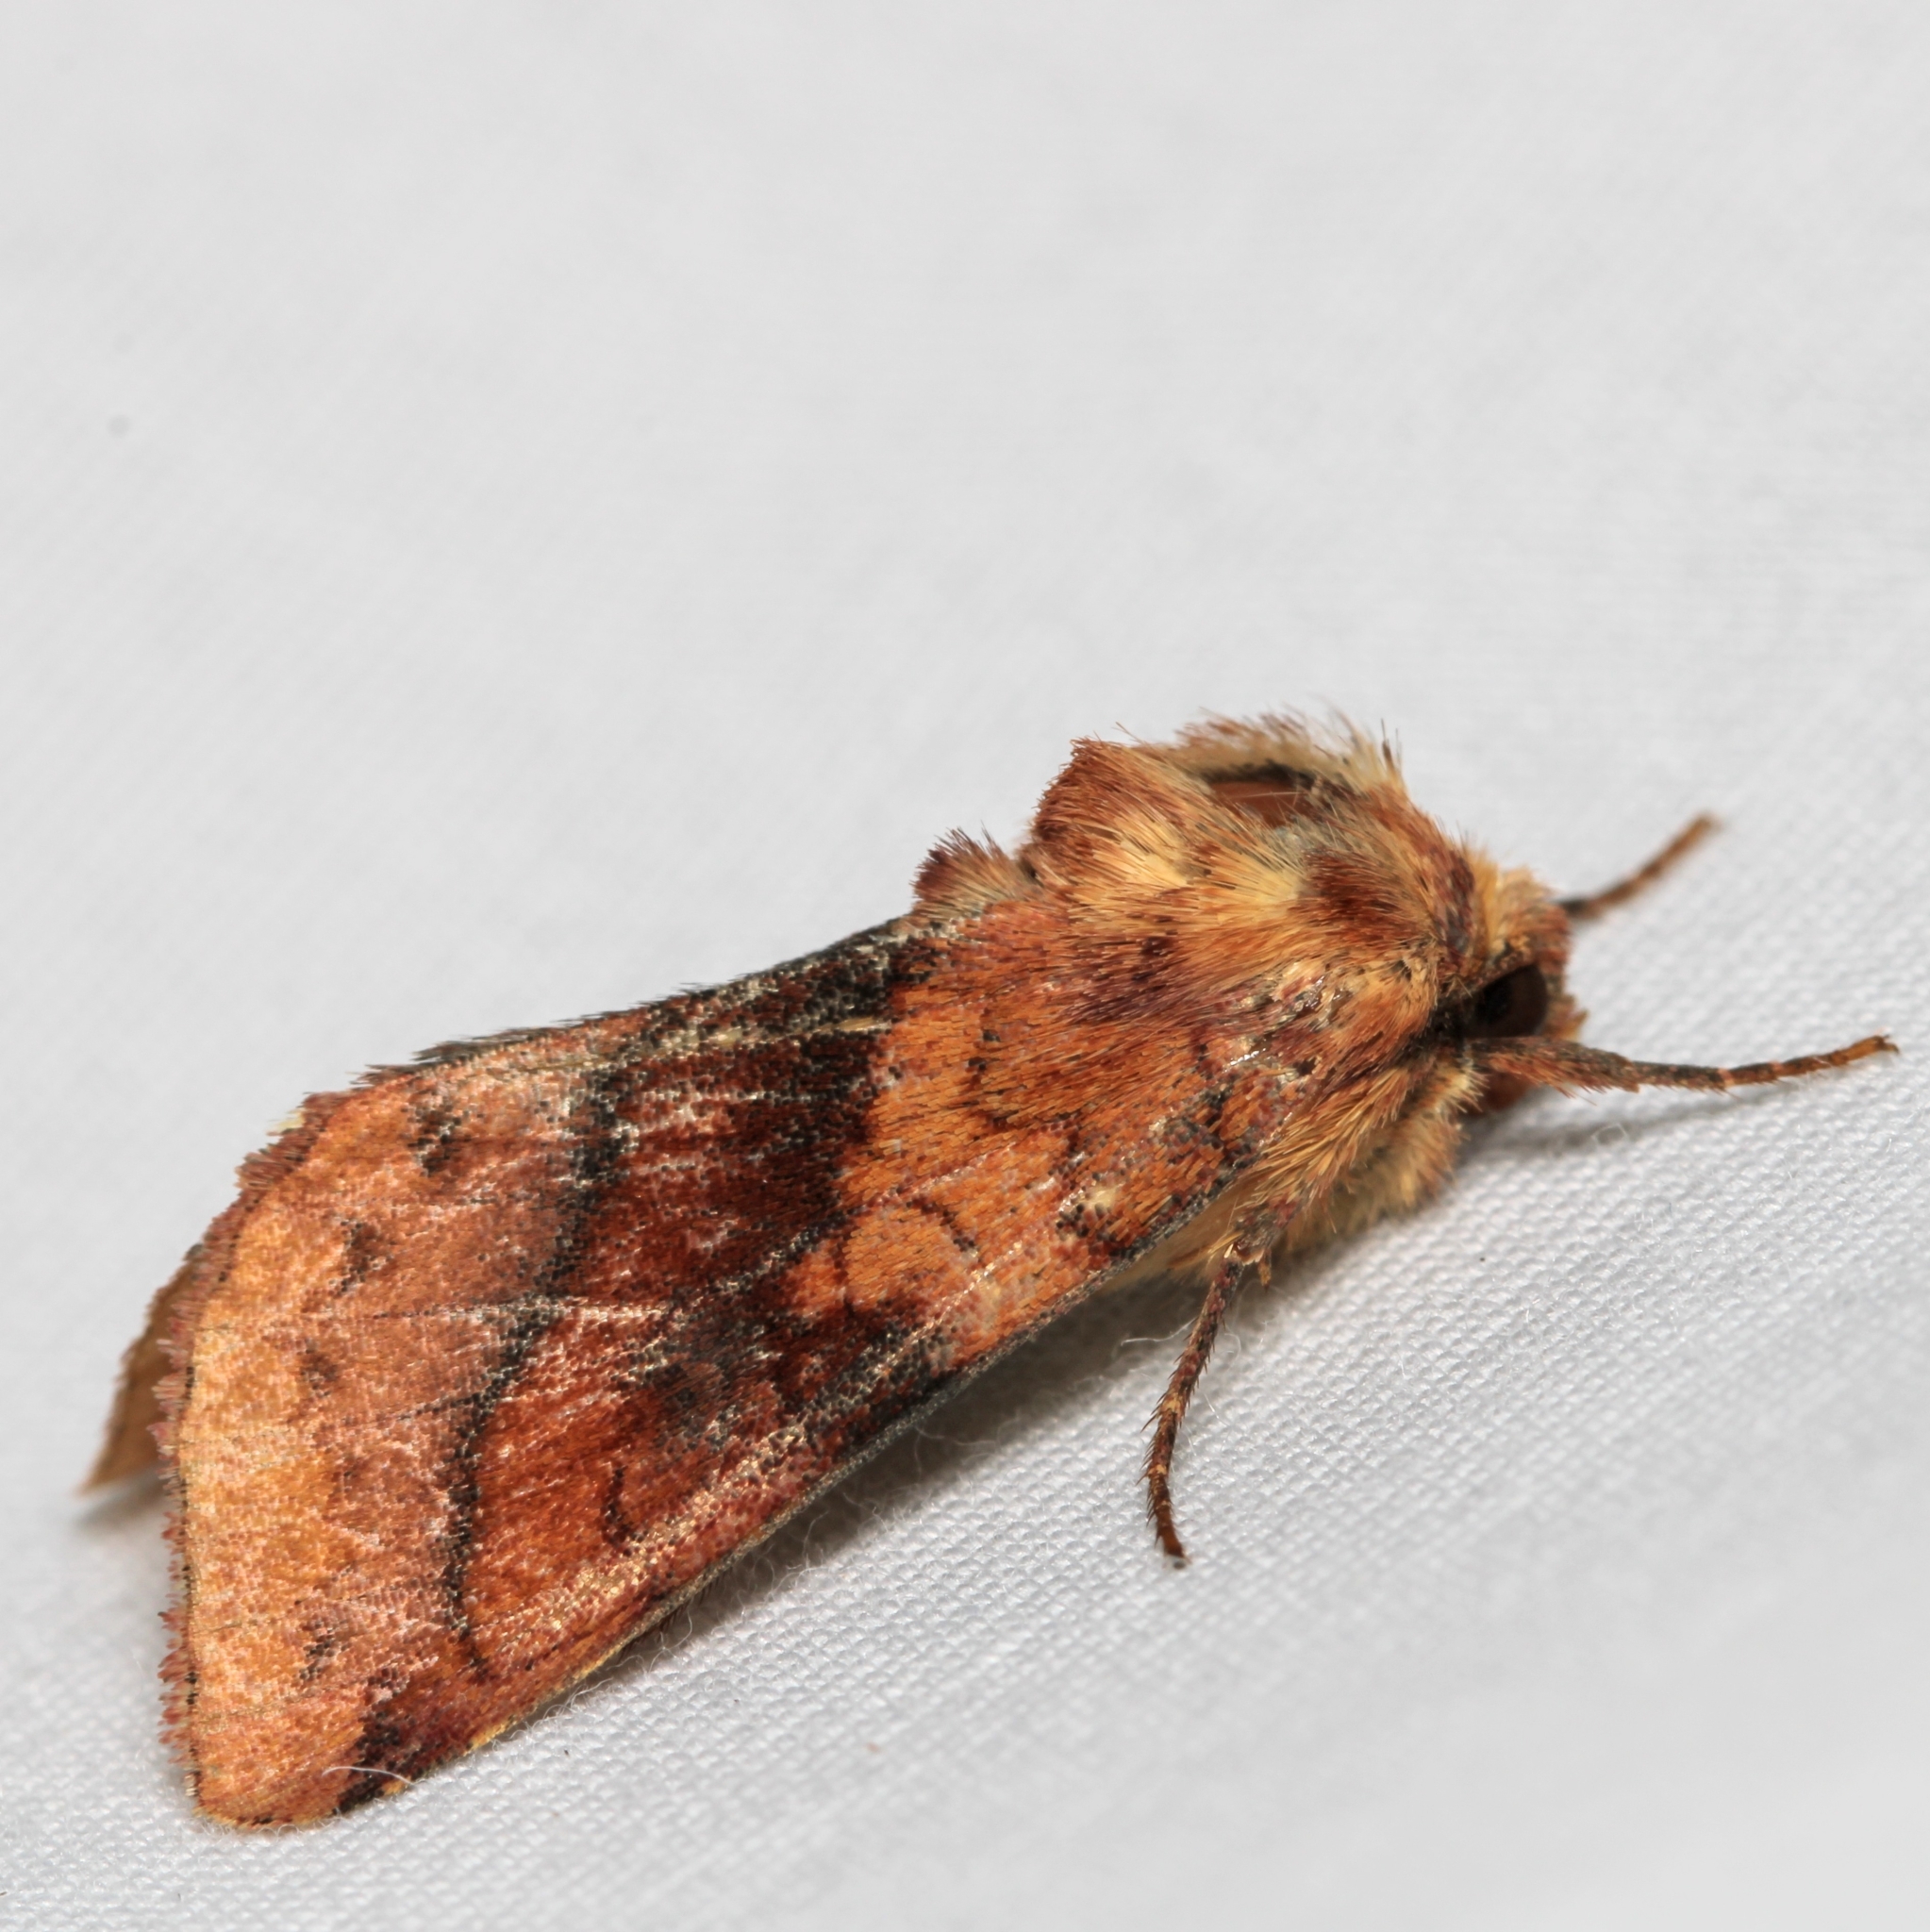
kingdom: Animalia
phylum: Arthropoda
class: Insecta
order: Lepidoptera
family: Noctuidae
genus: Pyrrhia
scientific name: Pyrrhia exprimens
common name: Purple-lined sallow
